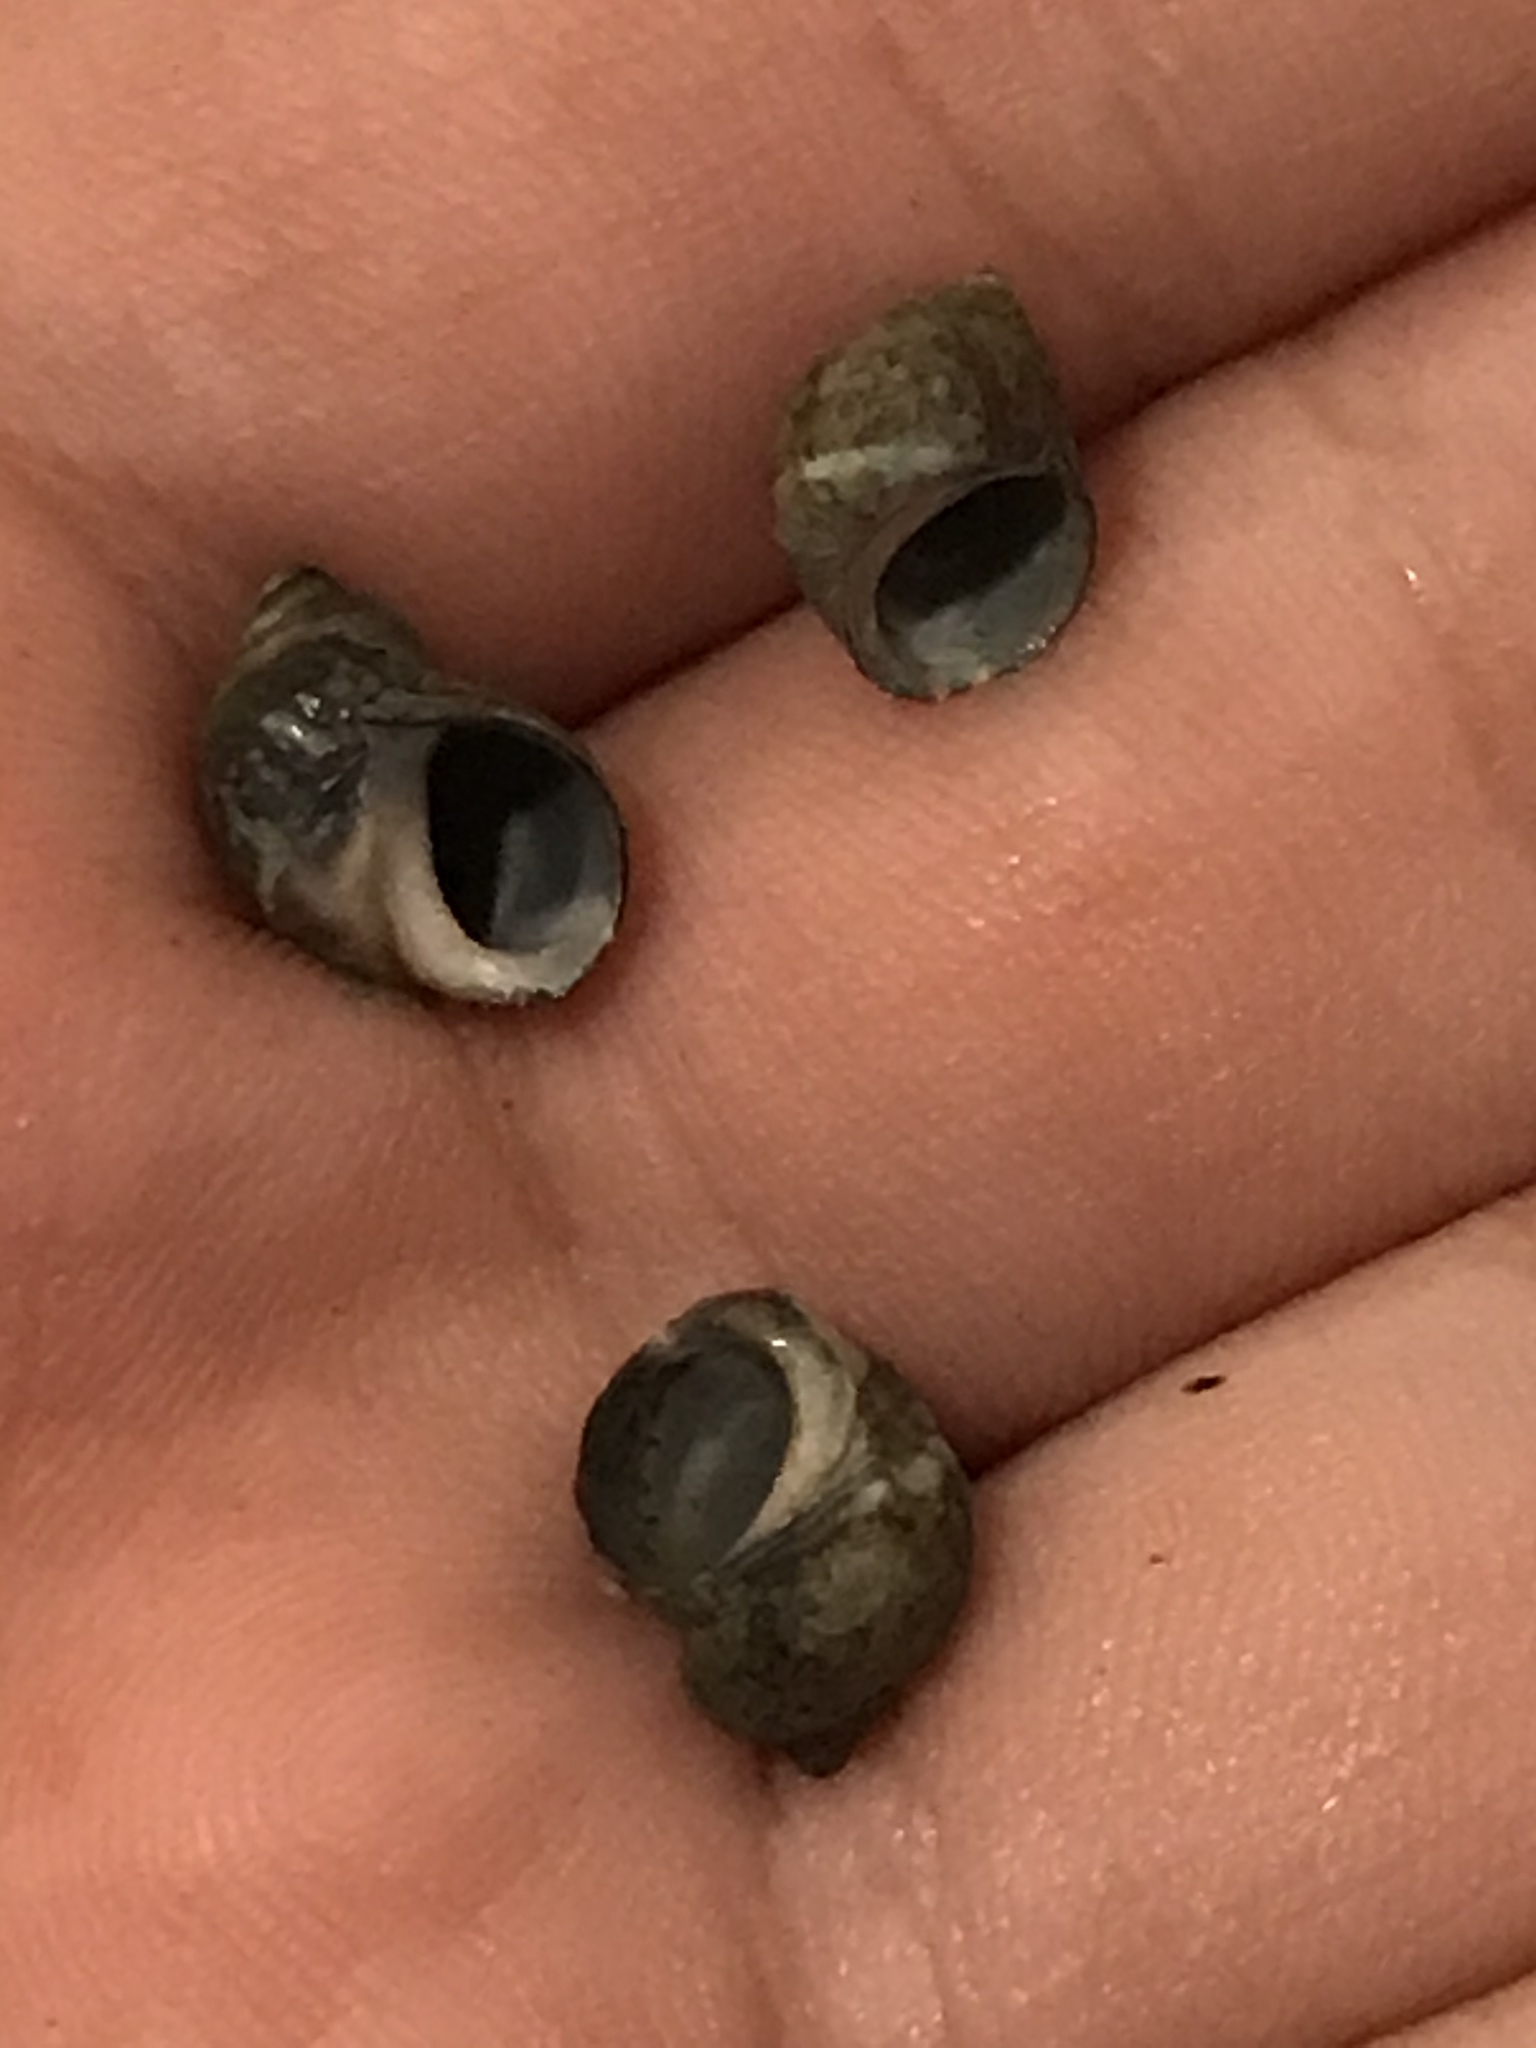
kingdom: Animalia
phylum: Mollusca
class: Gastropoda
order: Littorinimorpha
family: Littorinidae
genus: Littorina
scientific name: Littorina keenae
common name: Eroded periwinkle
